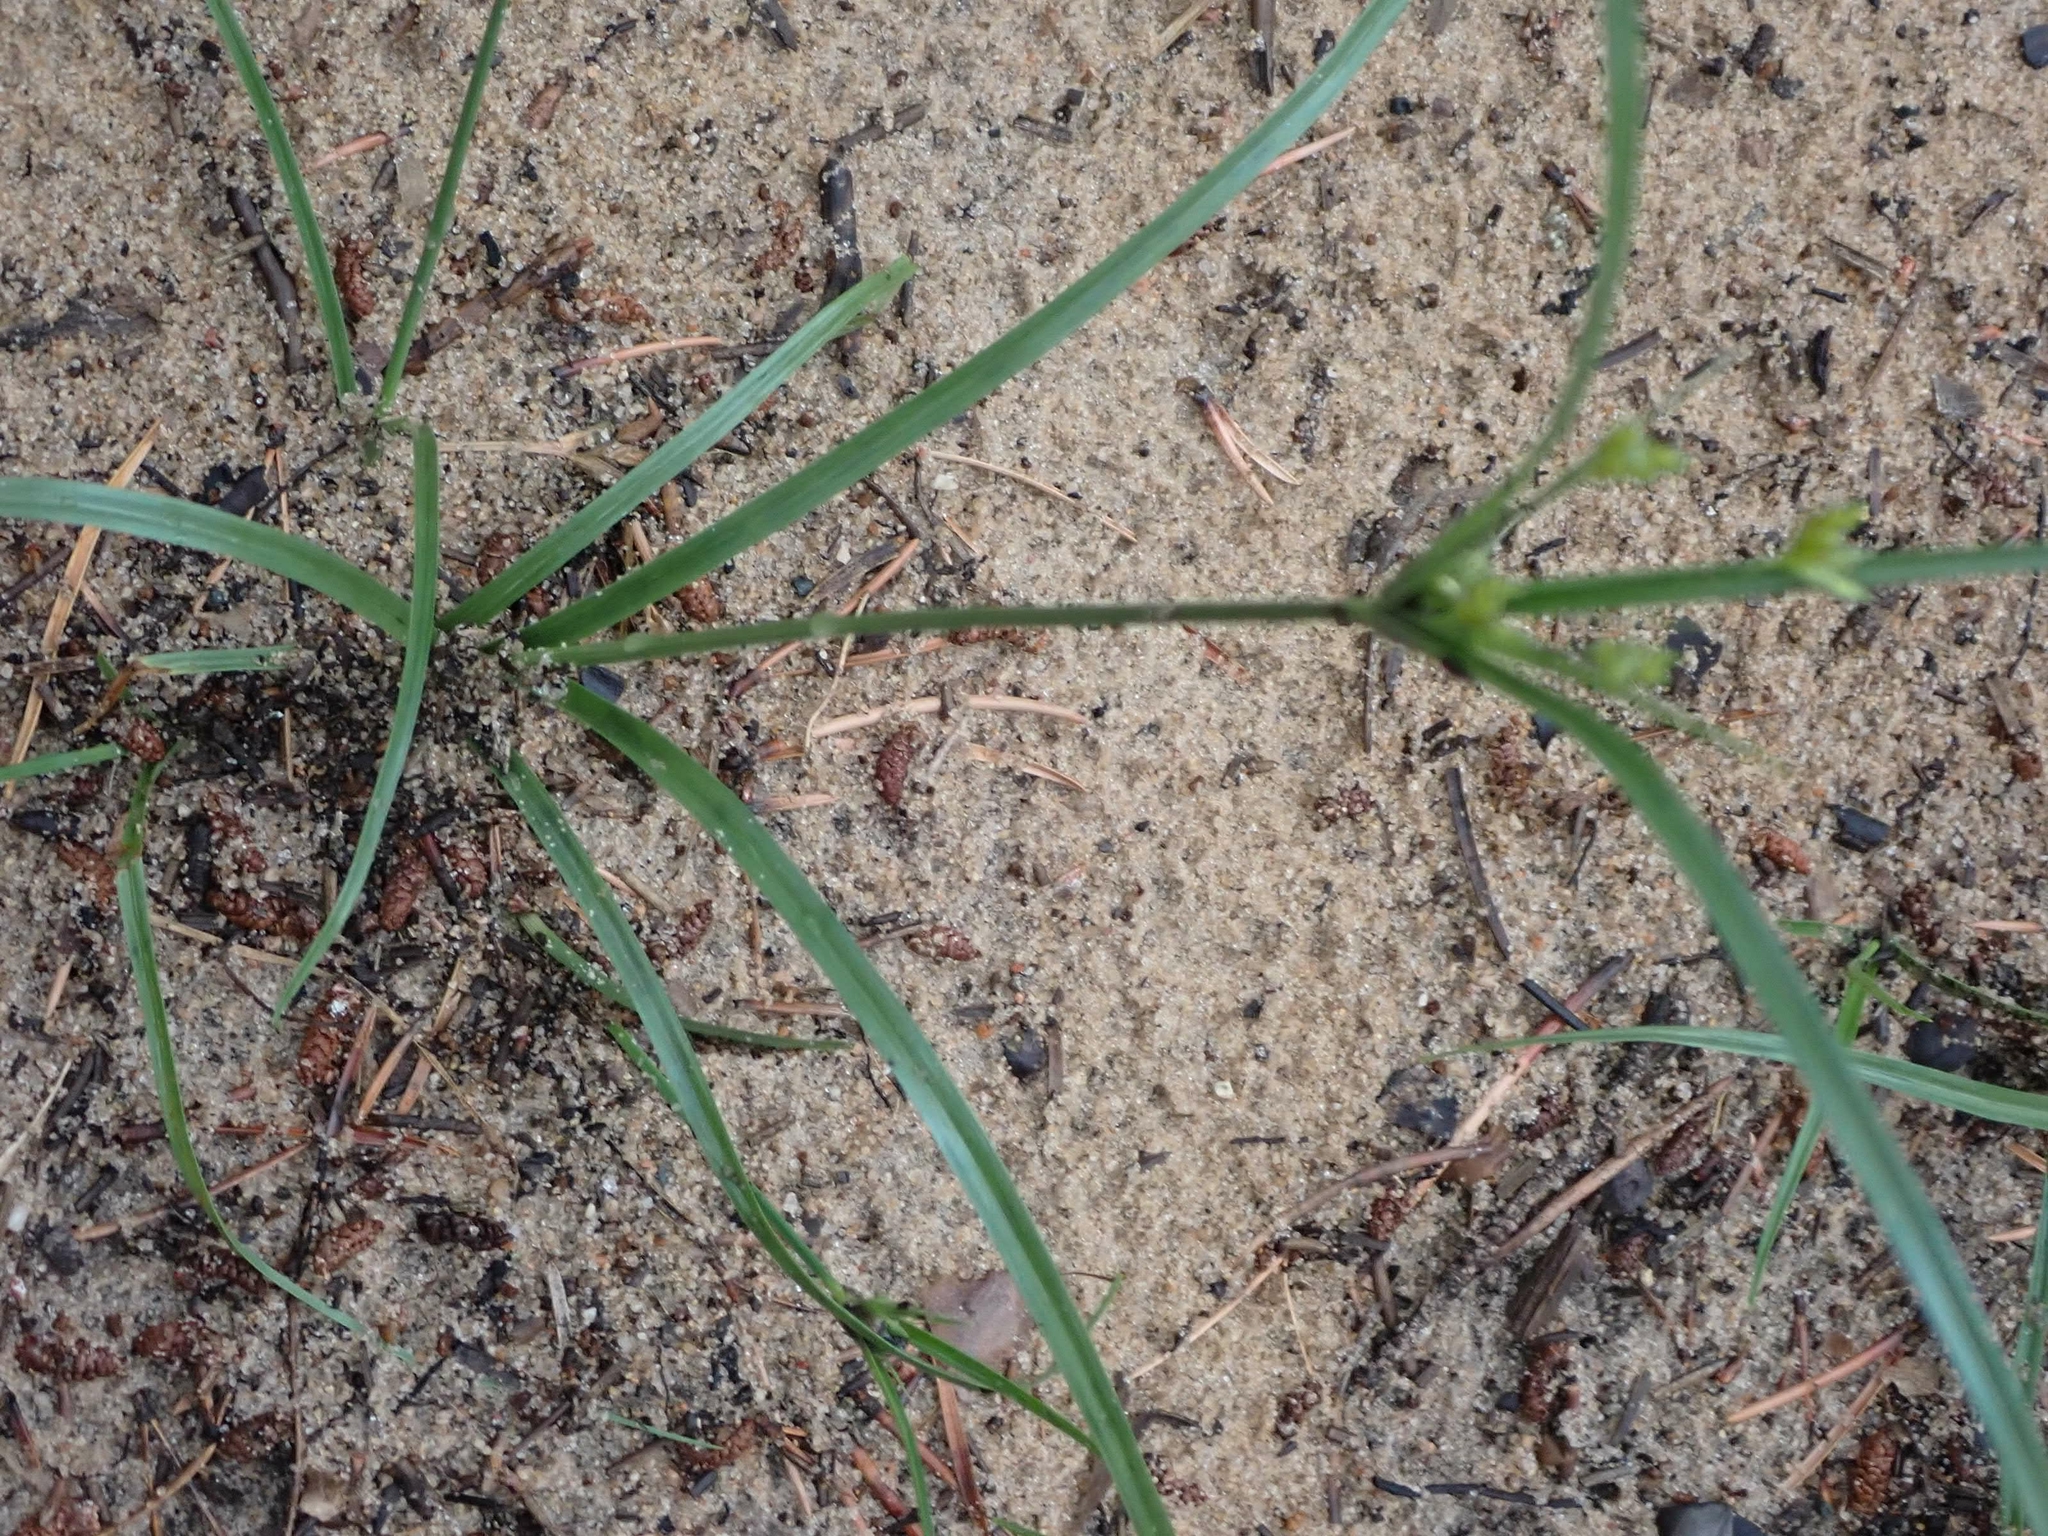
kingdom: Plantae
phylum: Tracheophyta
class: Liliopsida
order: Poales
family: Cyperaceae
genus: Cyperus
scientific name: Cyperus schweinitzii
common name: Schweinitz's cyperus
